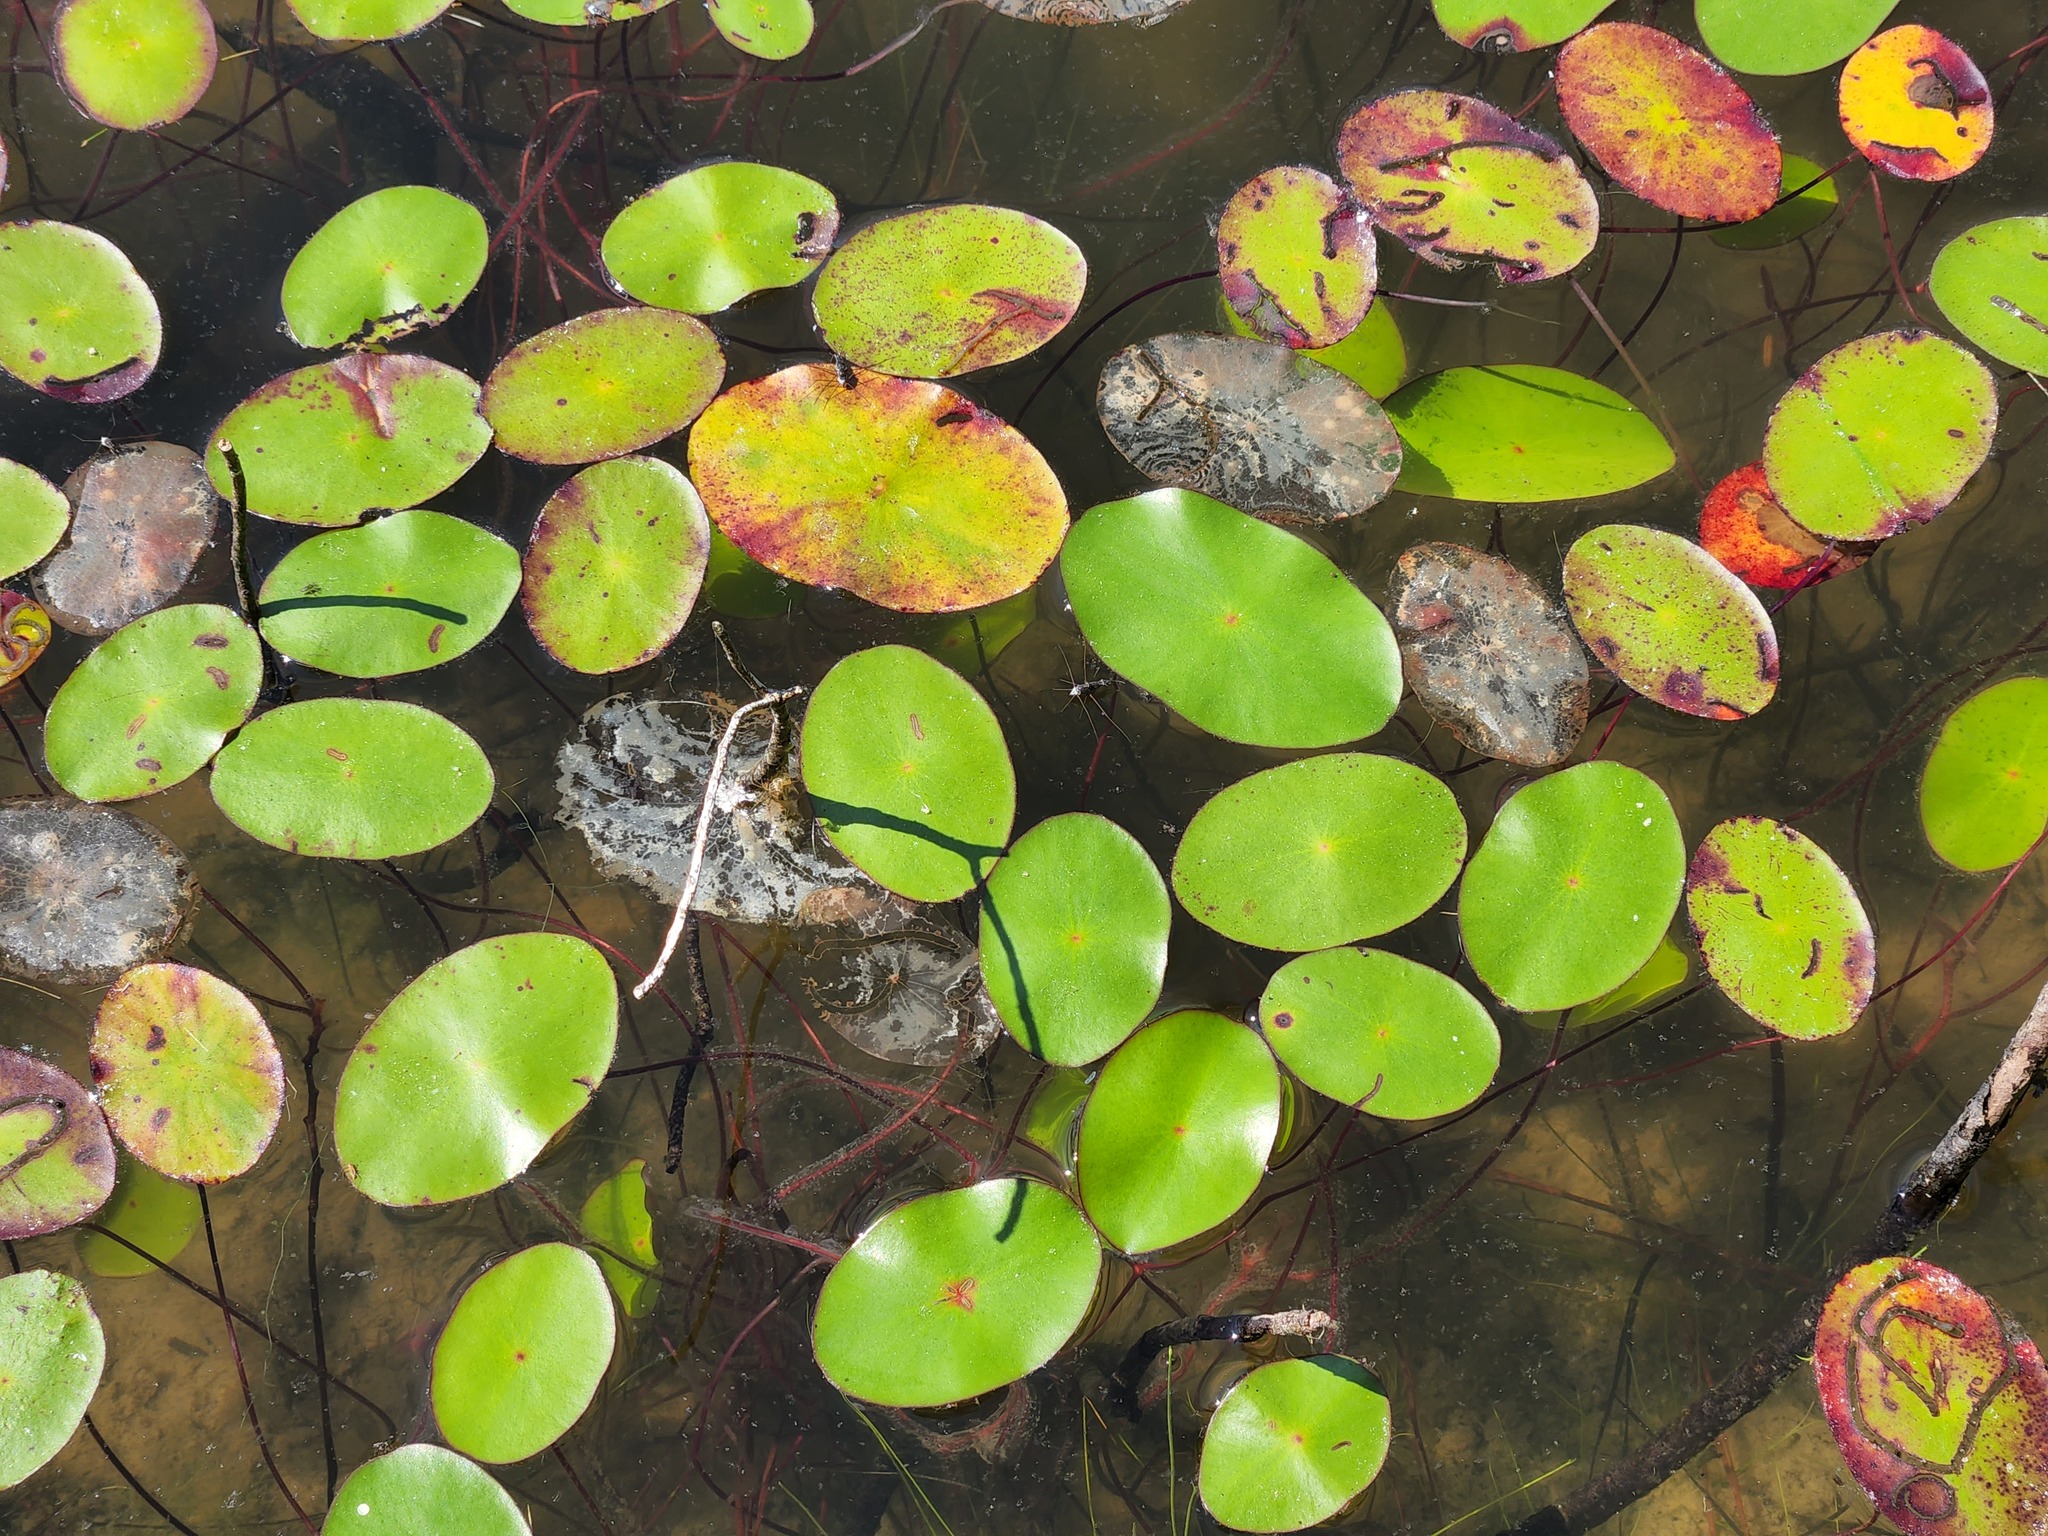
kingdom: Plantae
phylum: Tracheophyta
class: Magnoliopsida
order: Nymphaeales
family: Cabombaceae
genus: Brasenia
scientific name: Brasenia schreberi
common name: Water-shield
